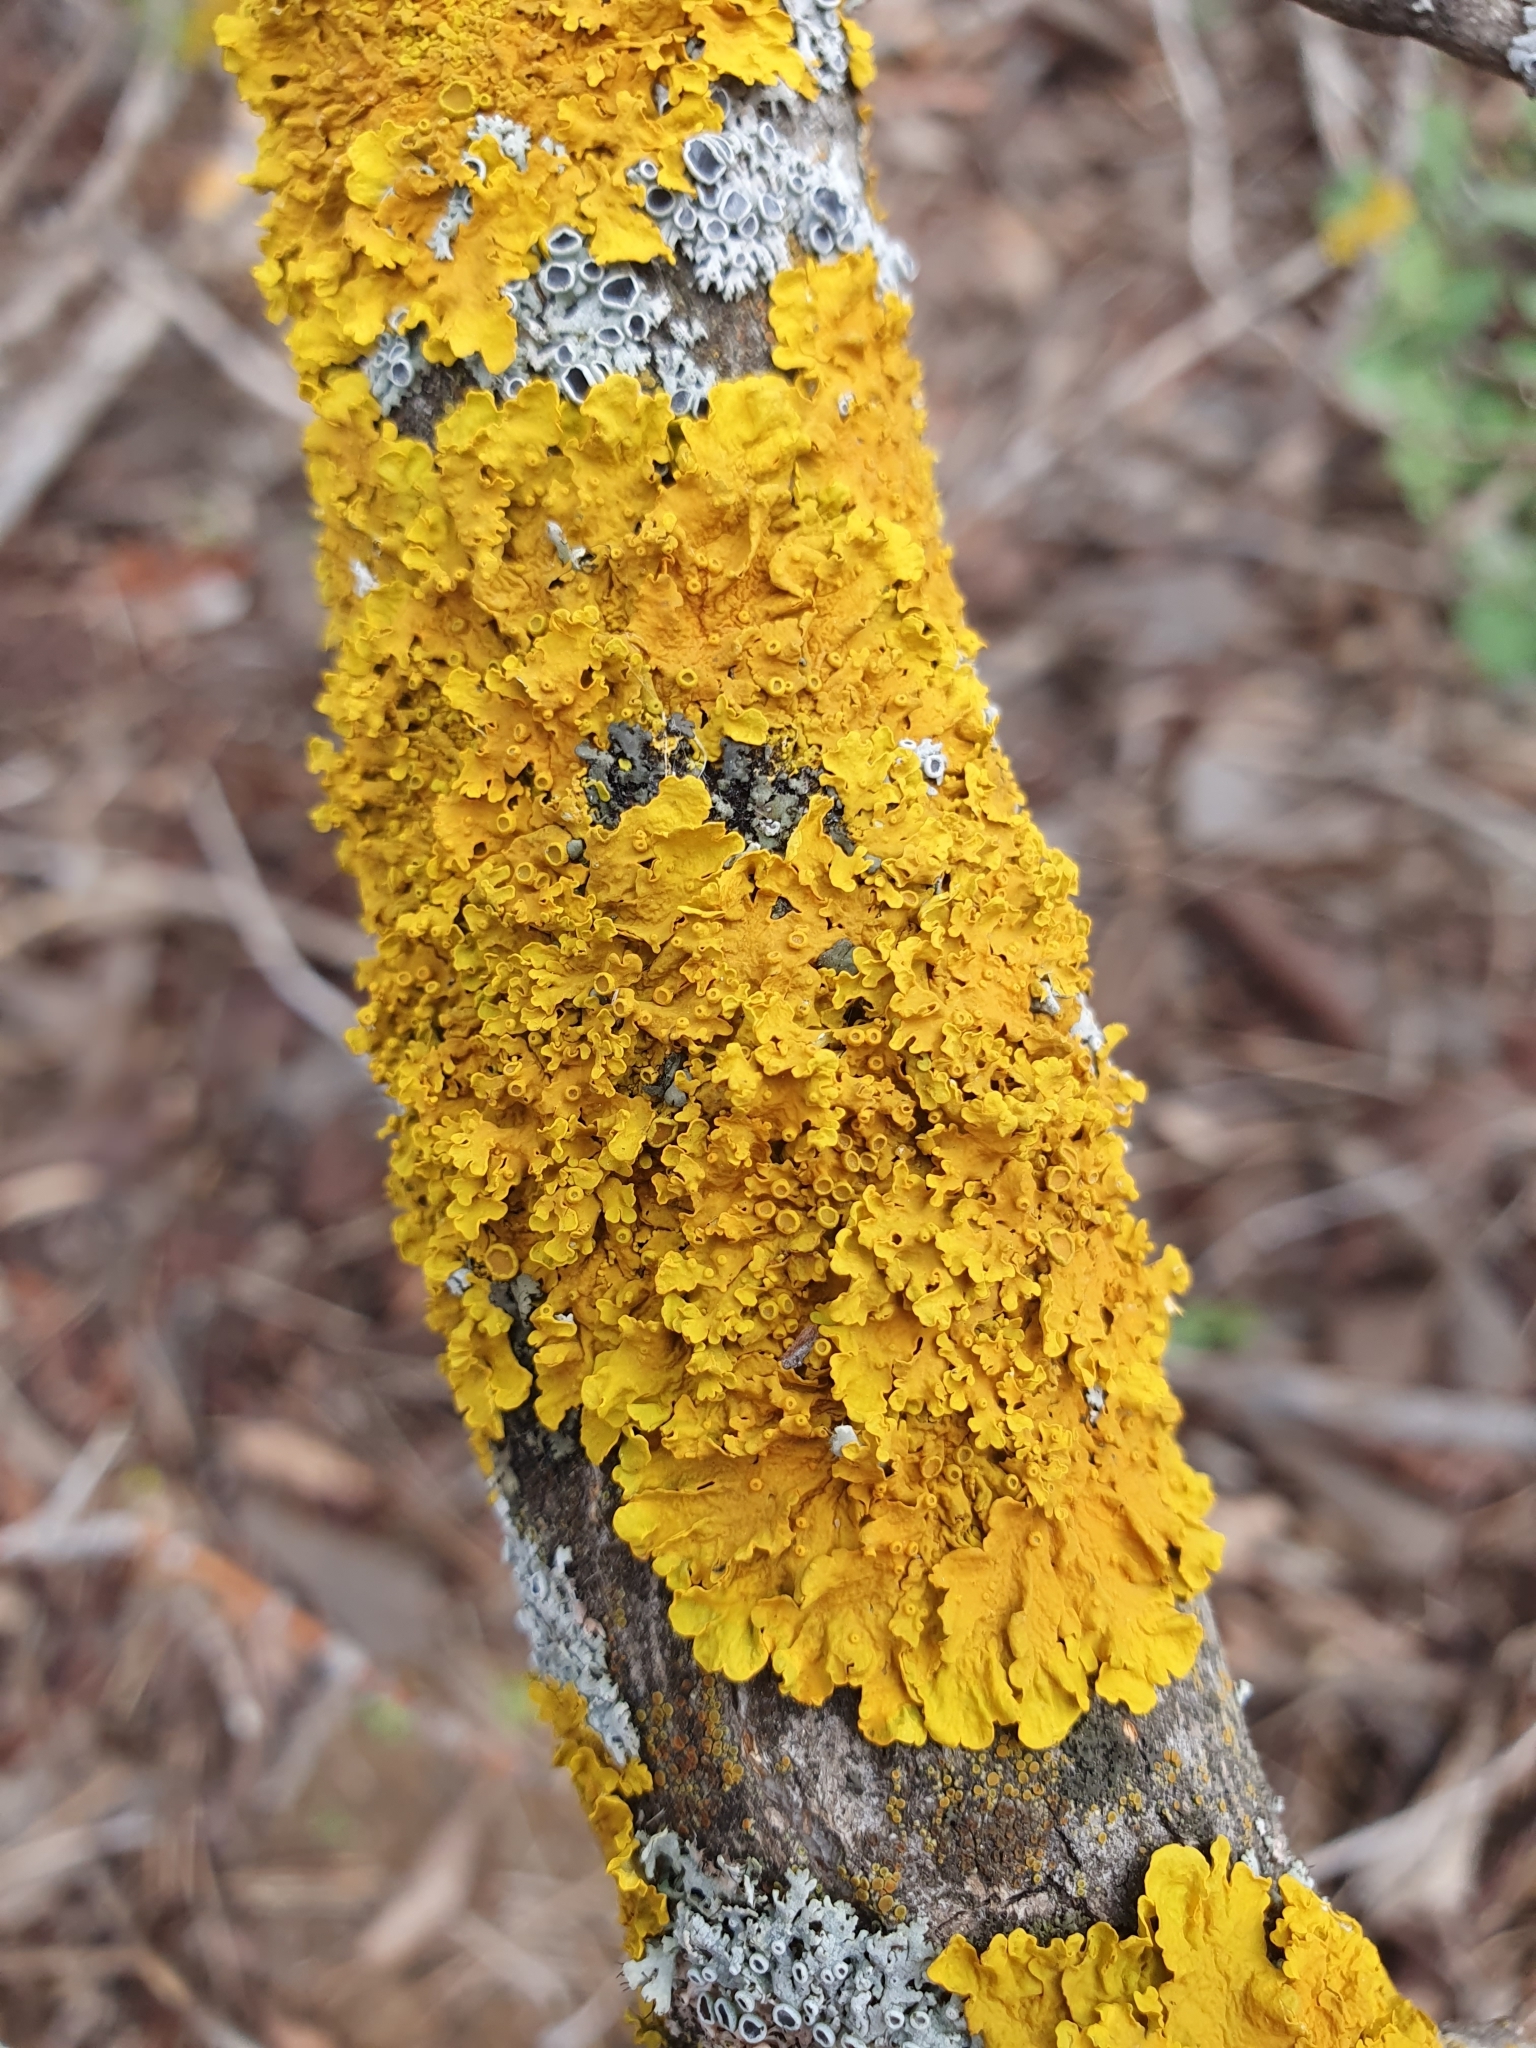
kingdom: Fungi
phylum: Ascomycota
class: Lecanoromycetes
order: Teloschistales
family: Teloschistaceae
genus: Xanthoria
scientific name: Xanthoria parietina
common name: Common orange lichen
